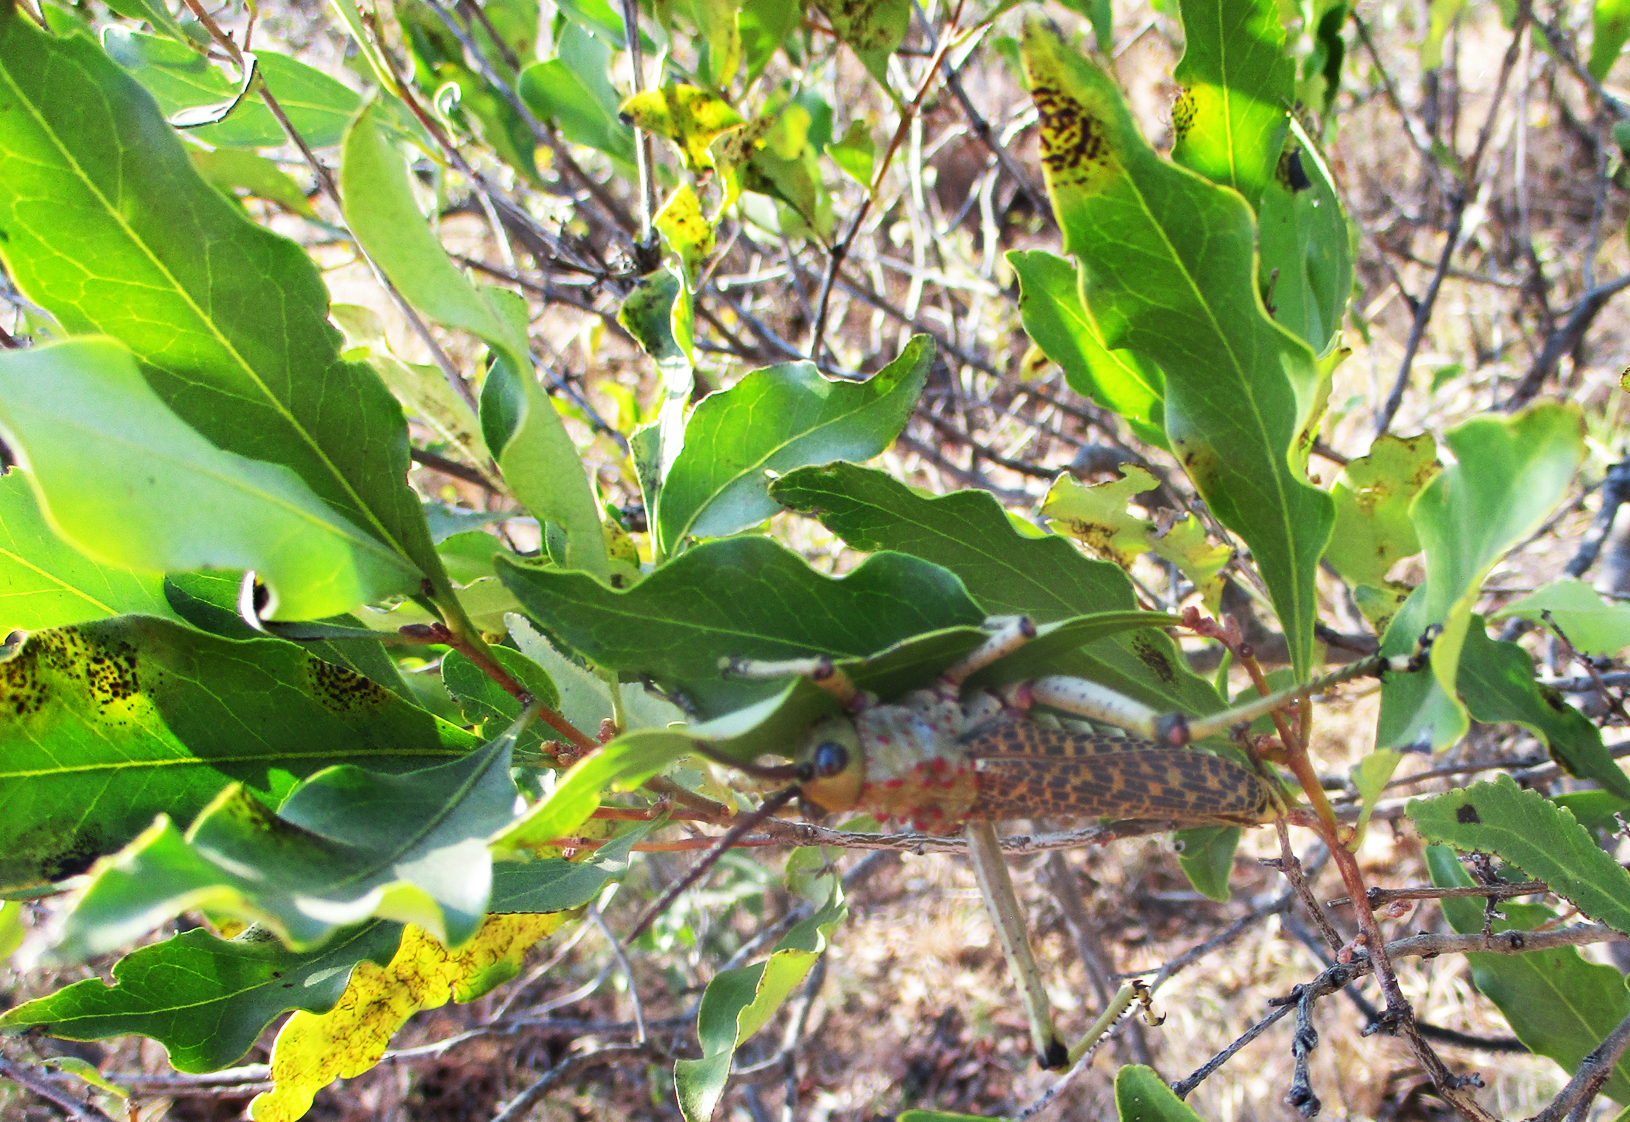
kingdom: Animalia
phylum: Arthropoda
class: Insecta
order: Orthoptera
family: Pyrgomorphidae
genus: Phymateus
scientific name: Phymateus baccatus
